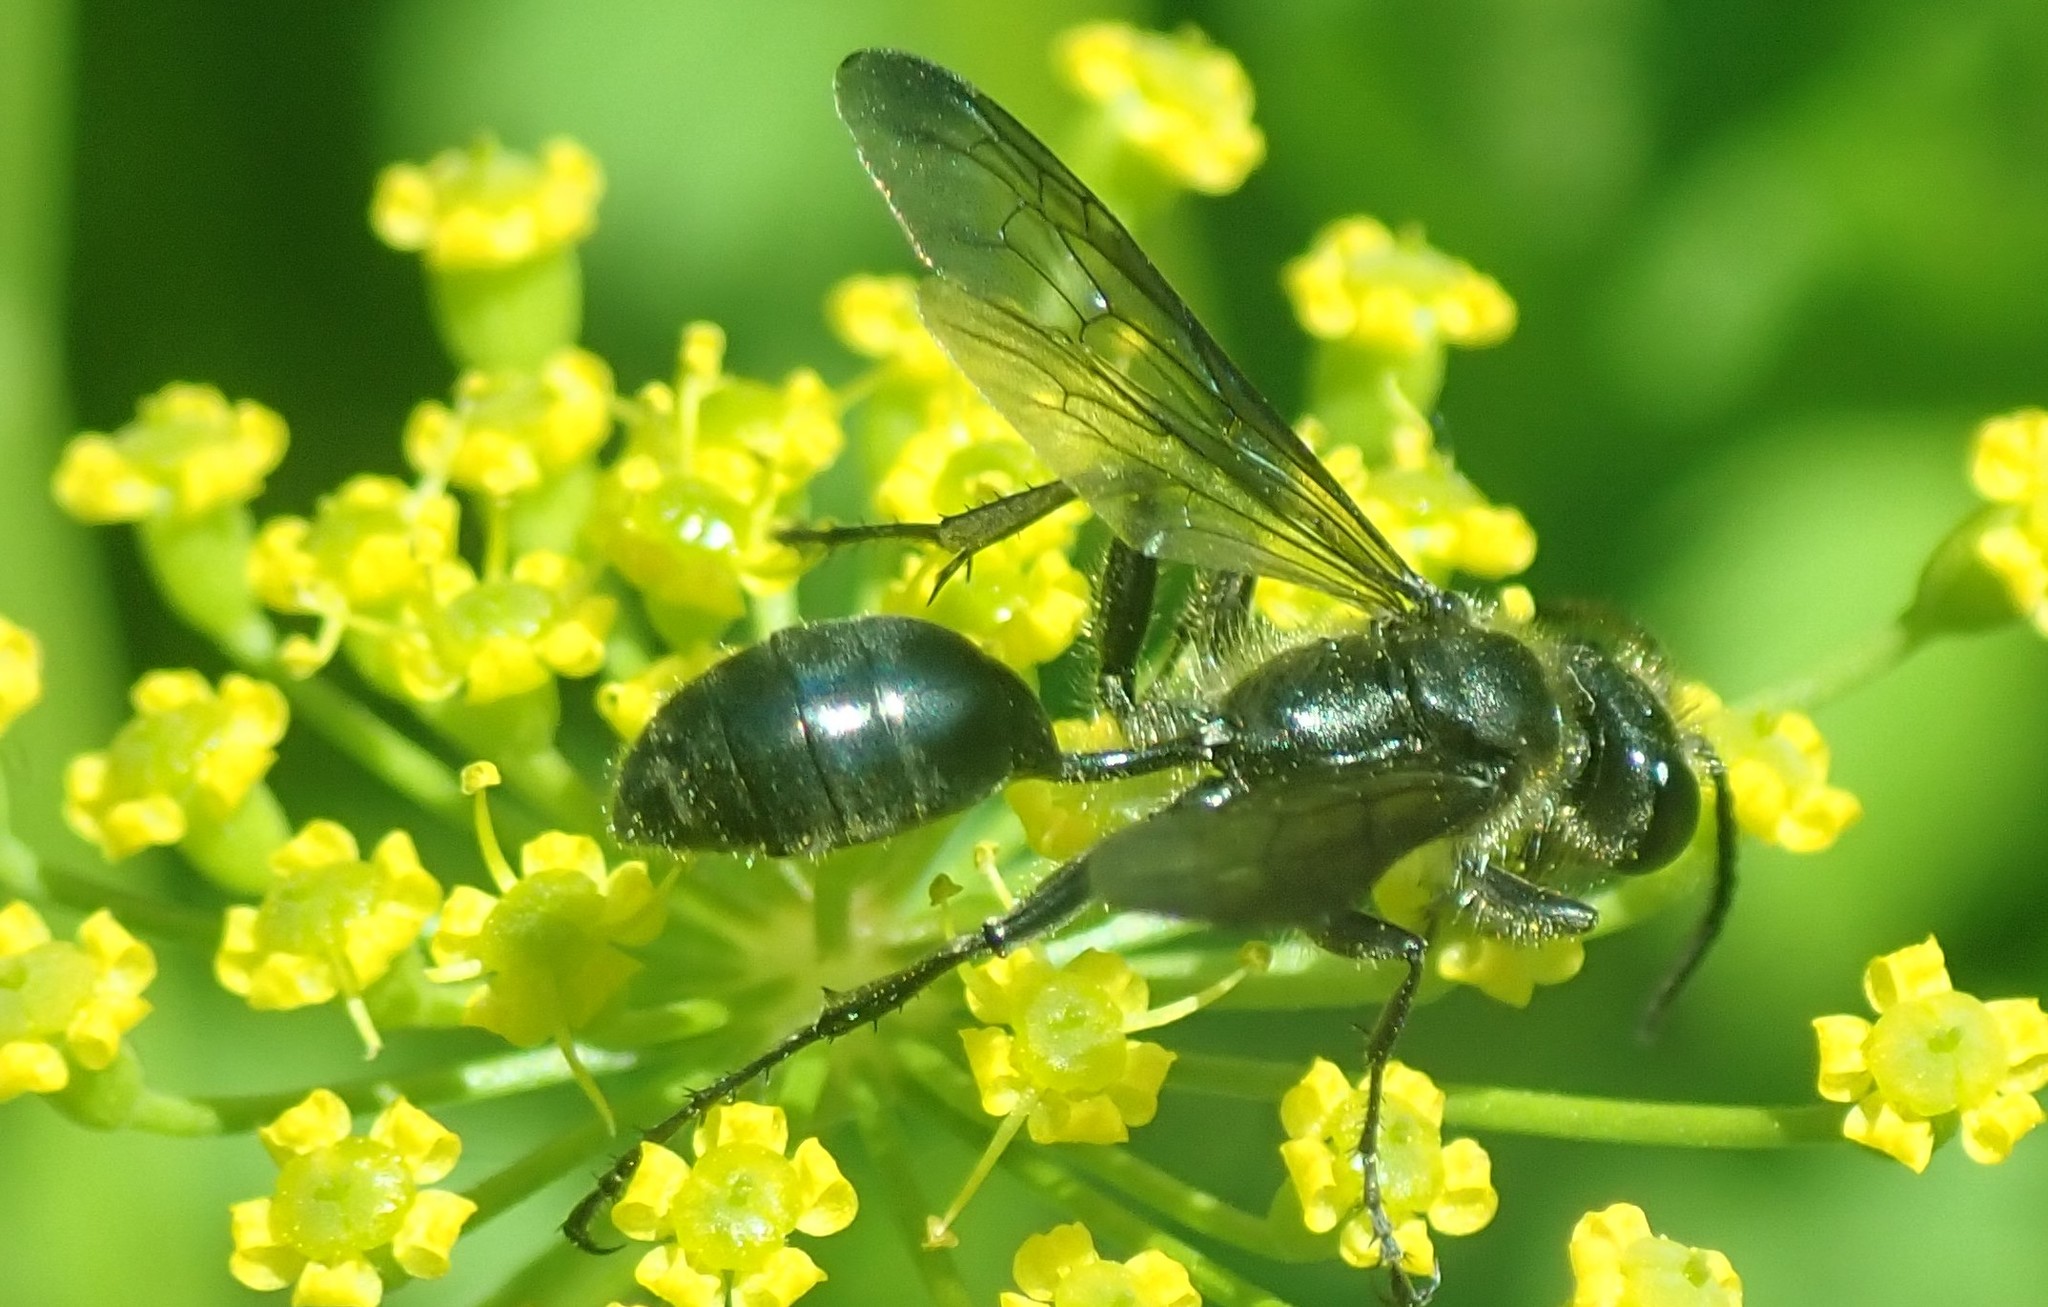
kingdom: Animalia
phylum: Arthropoda
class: Insecta
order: Hymenoptera
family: Sphecidae
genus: Isodontia
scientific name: Isodontia mexicana
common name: Mud dauber
